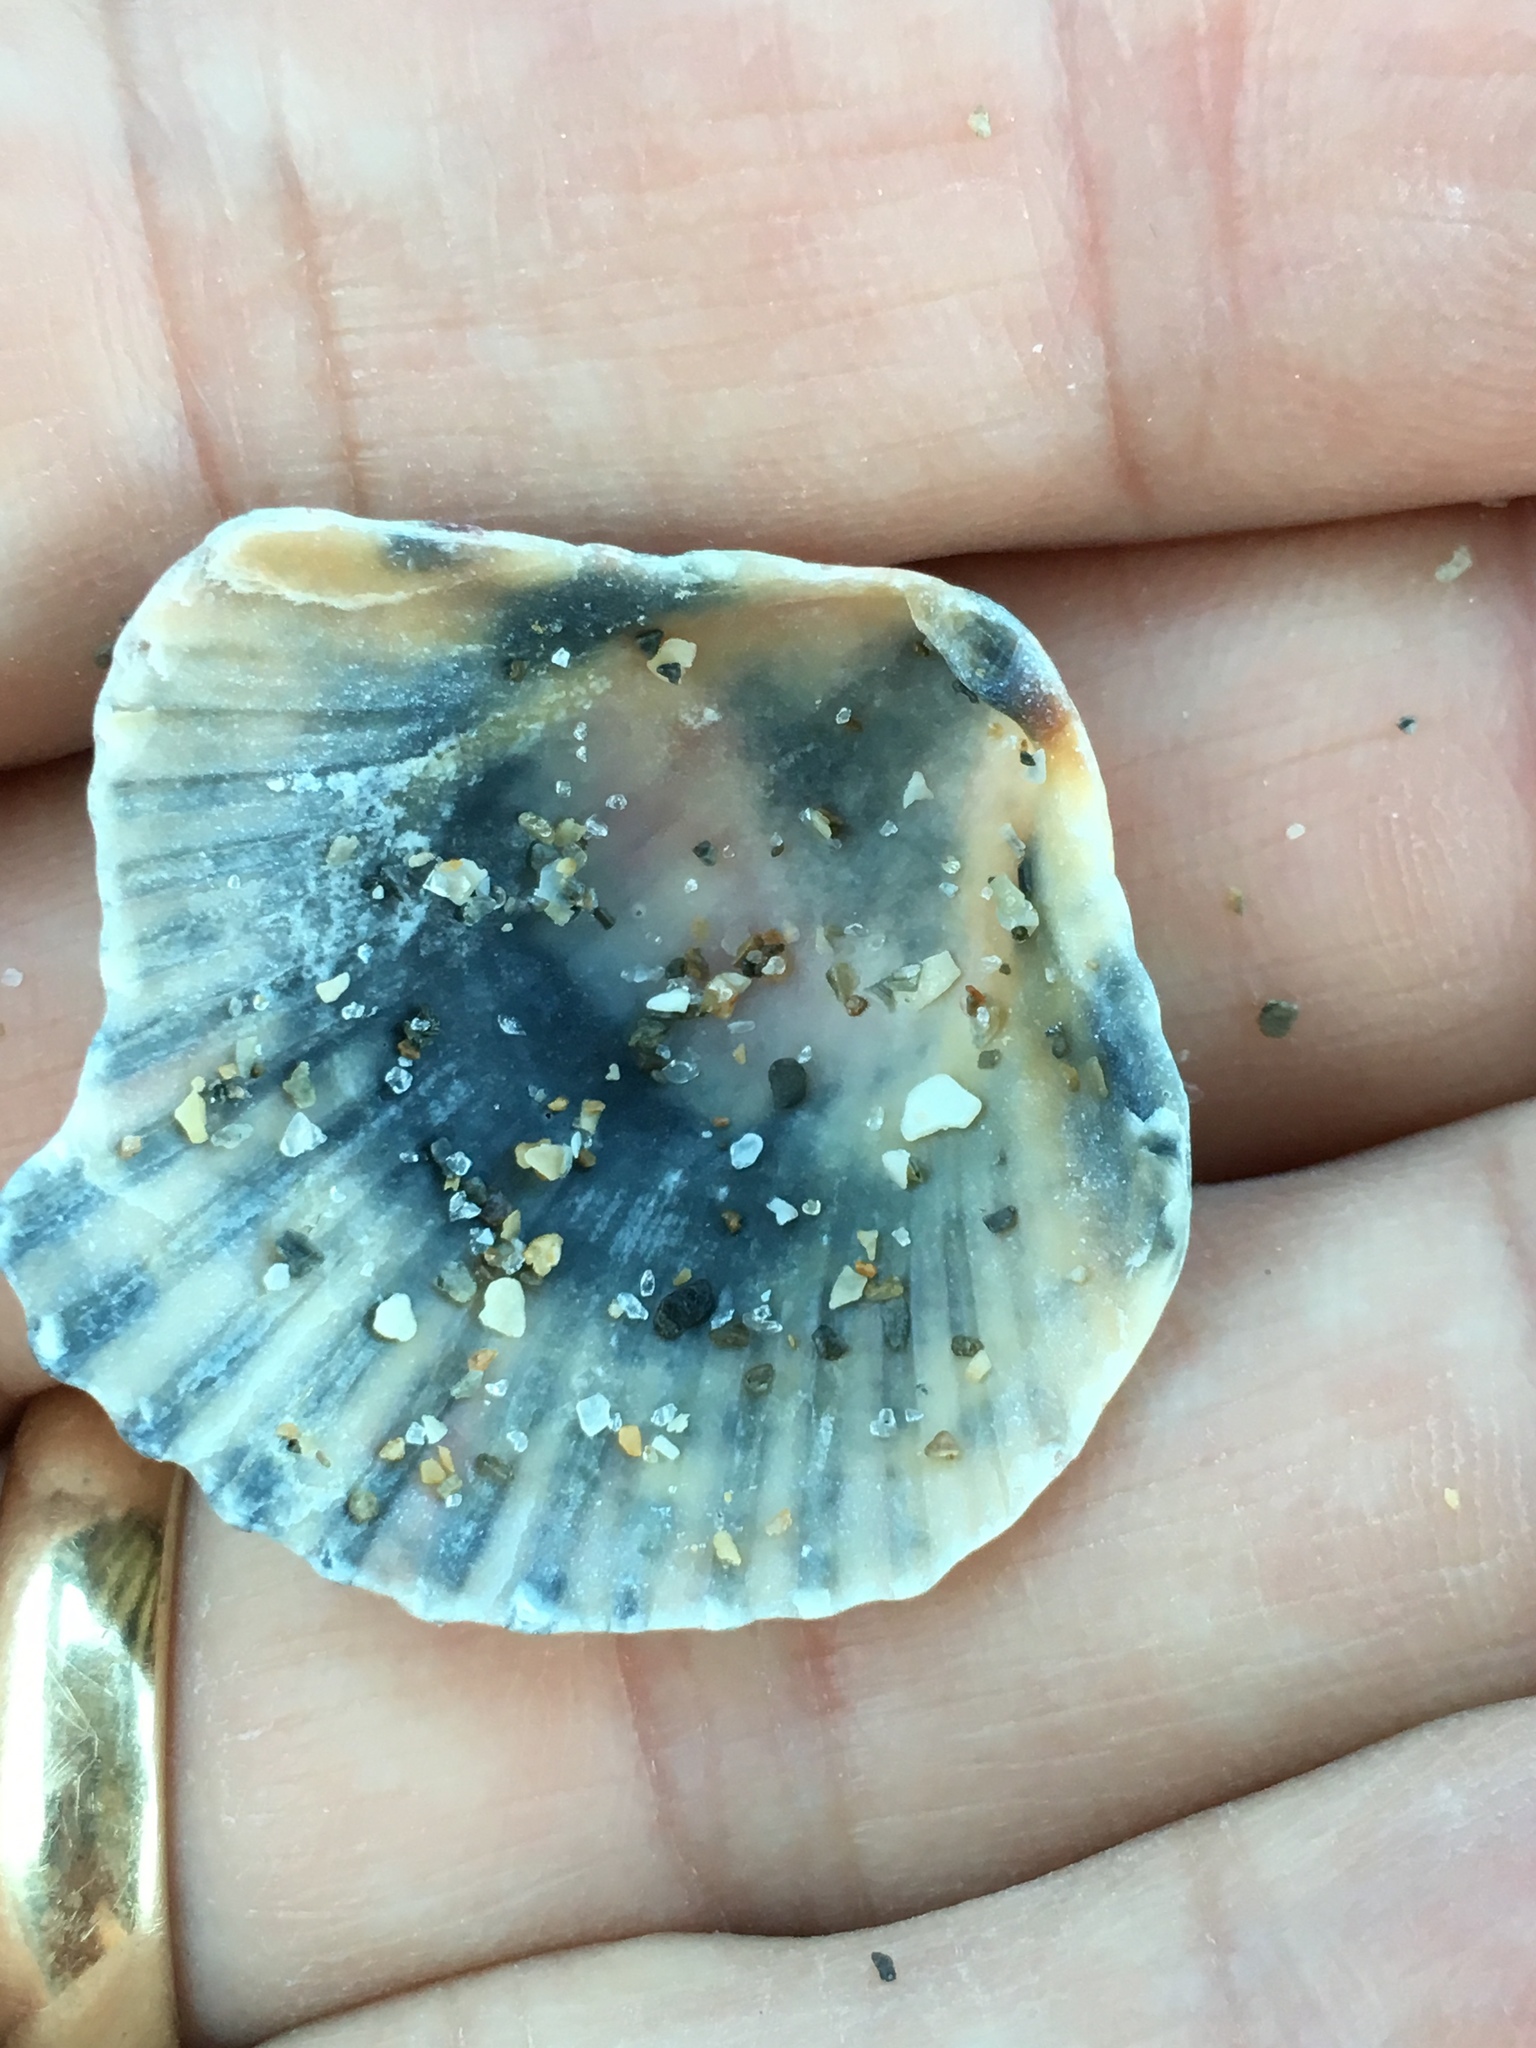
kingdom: Animalia
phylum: Mollusca
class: Bivalvia
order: Pectinida
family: Pectinidae
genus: Argopecten
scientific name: Argopecten gibbus
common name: Atlantic calico scallop
